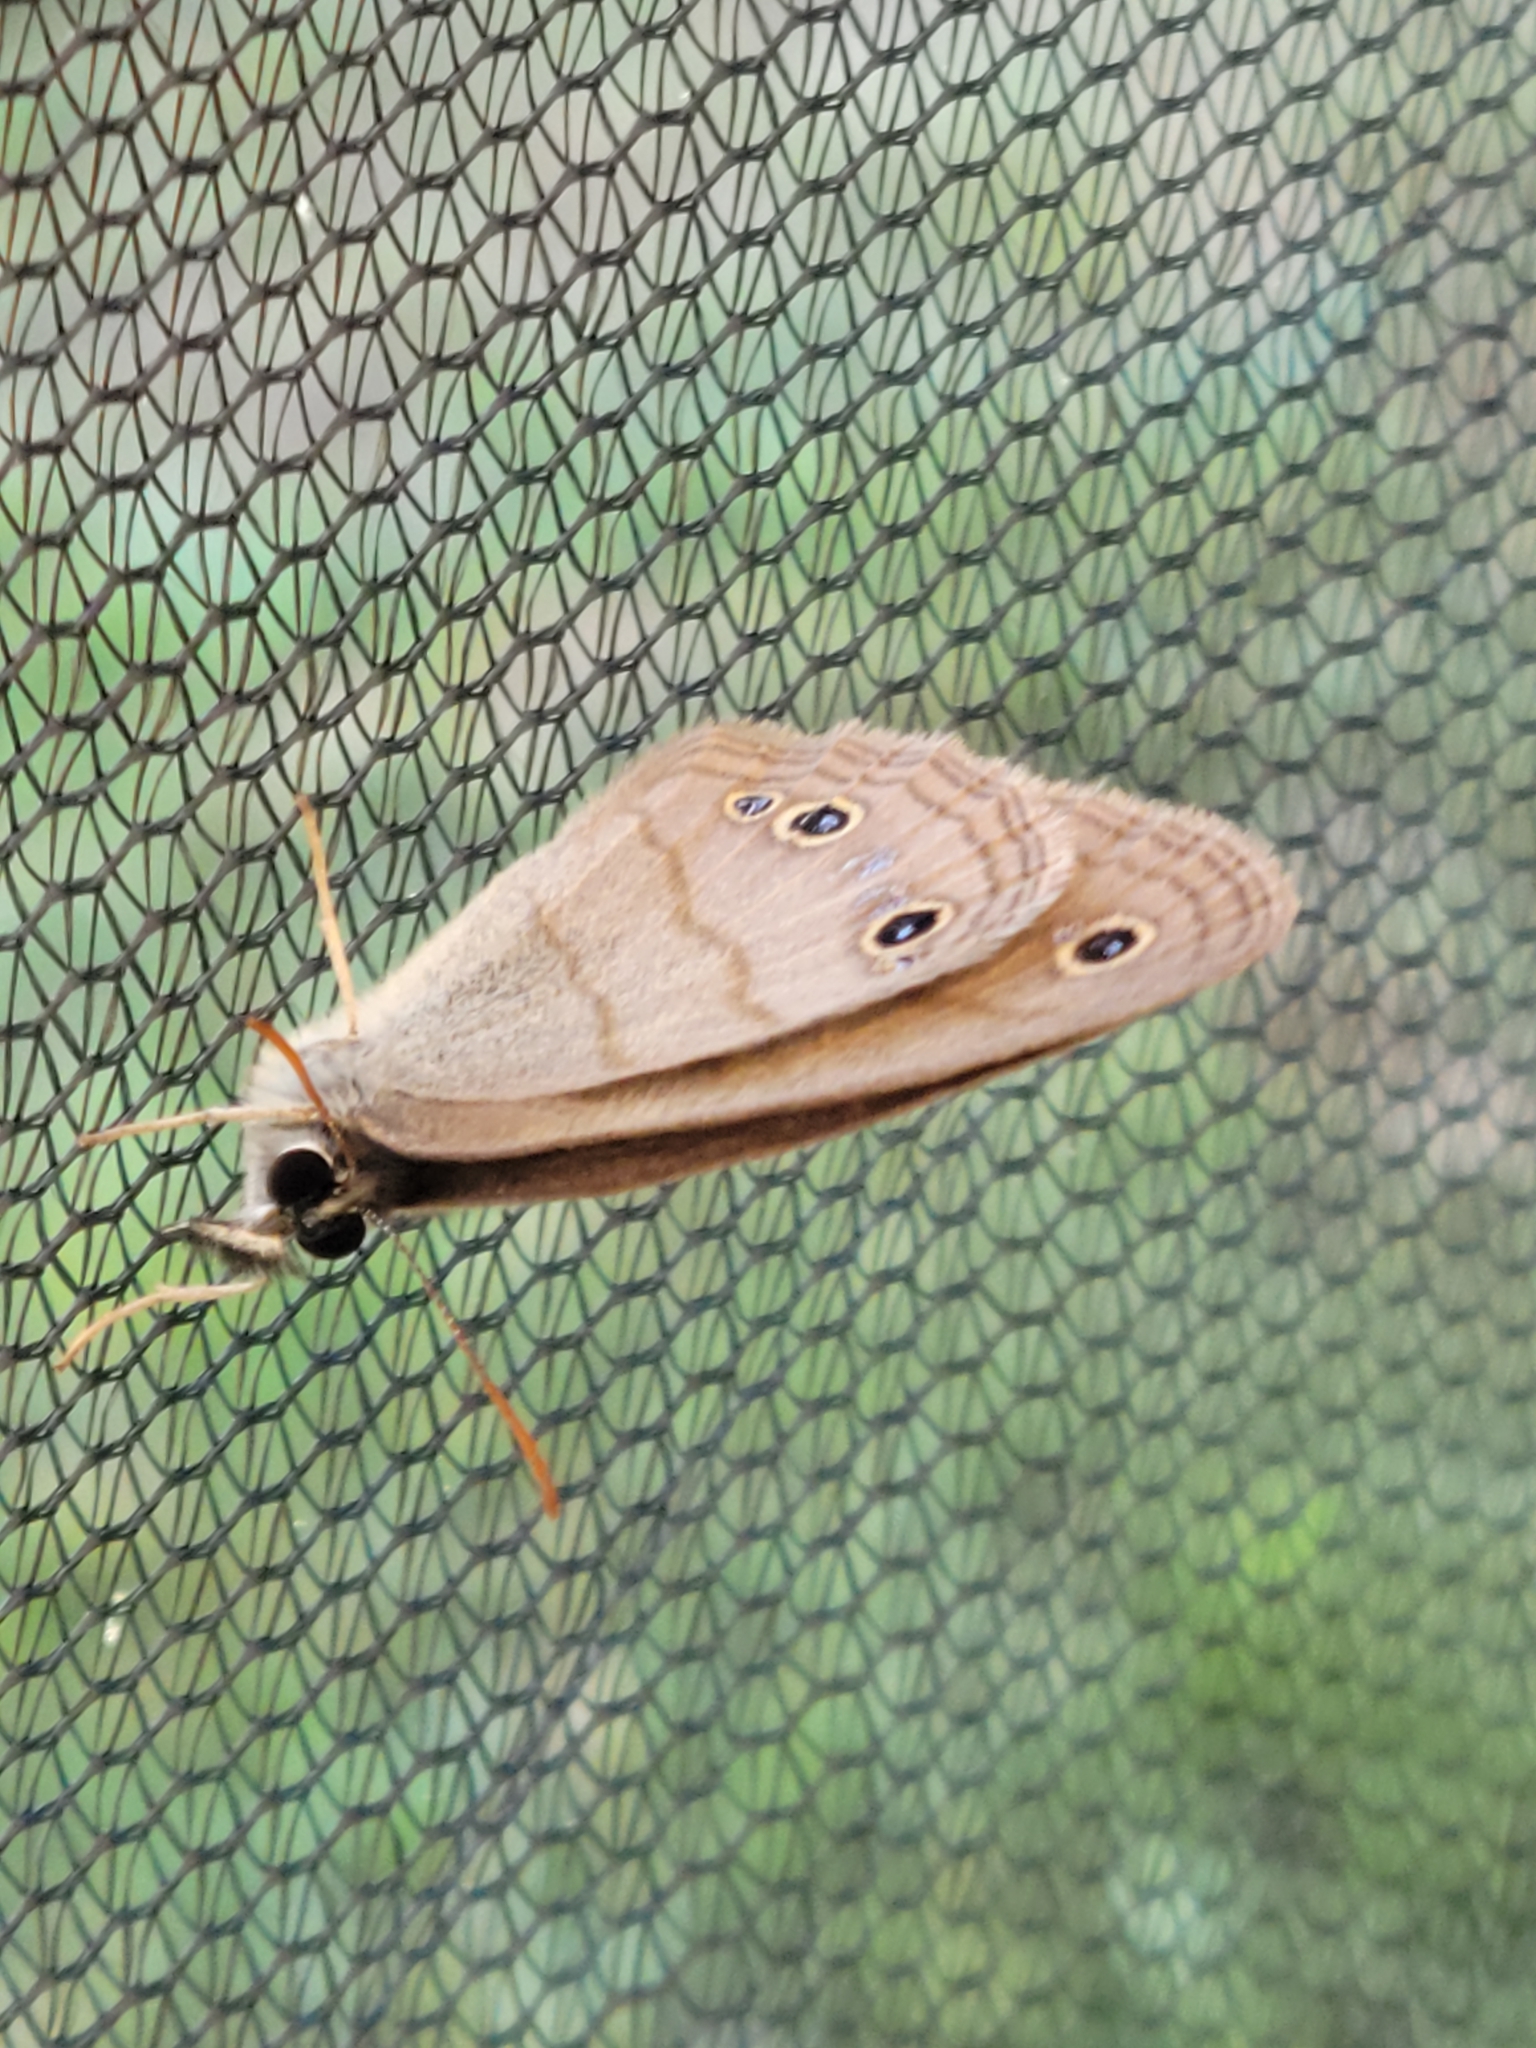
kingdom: Animalia
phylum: Arthropoda
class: Insecta
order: Lepidoptera
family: Nymphalidae
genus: Euptychia
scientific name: Euptychia cymela
